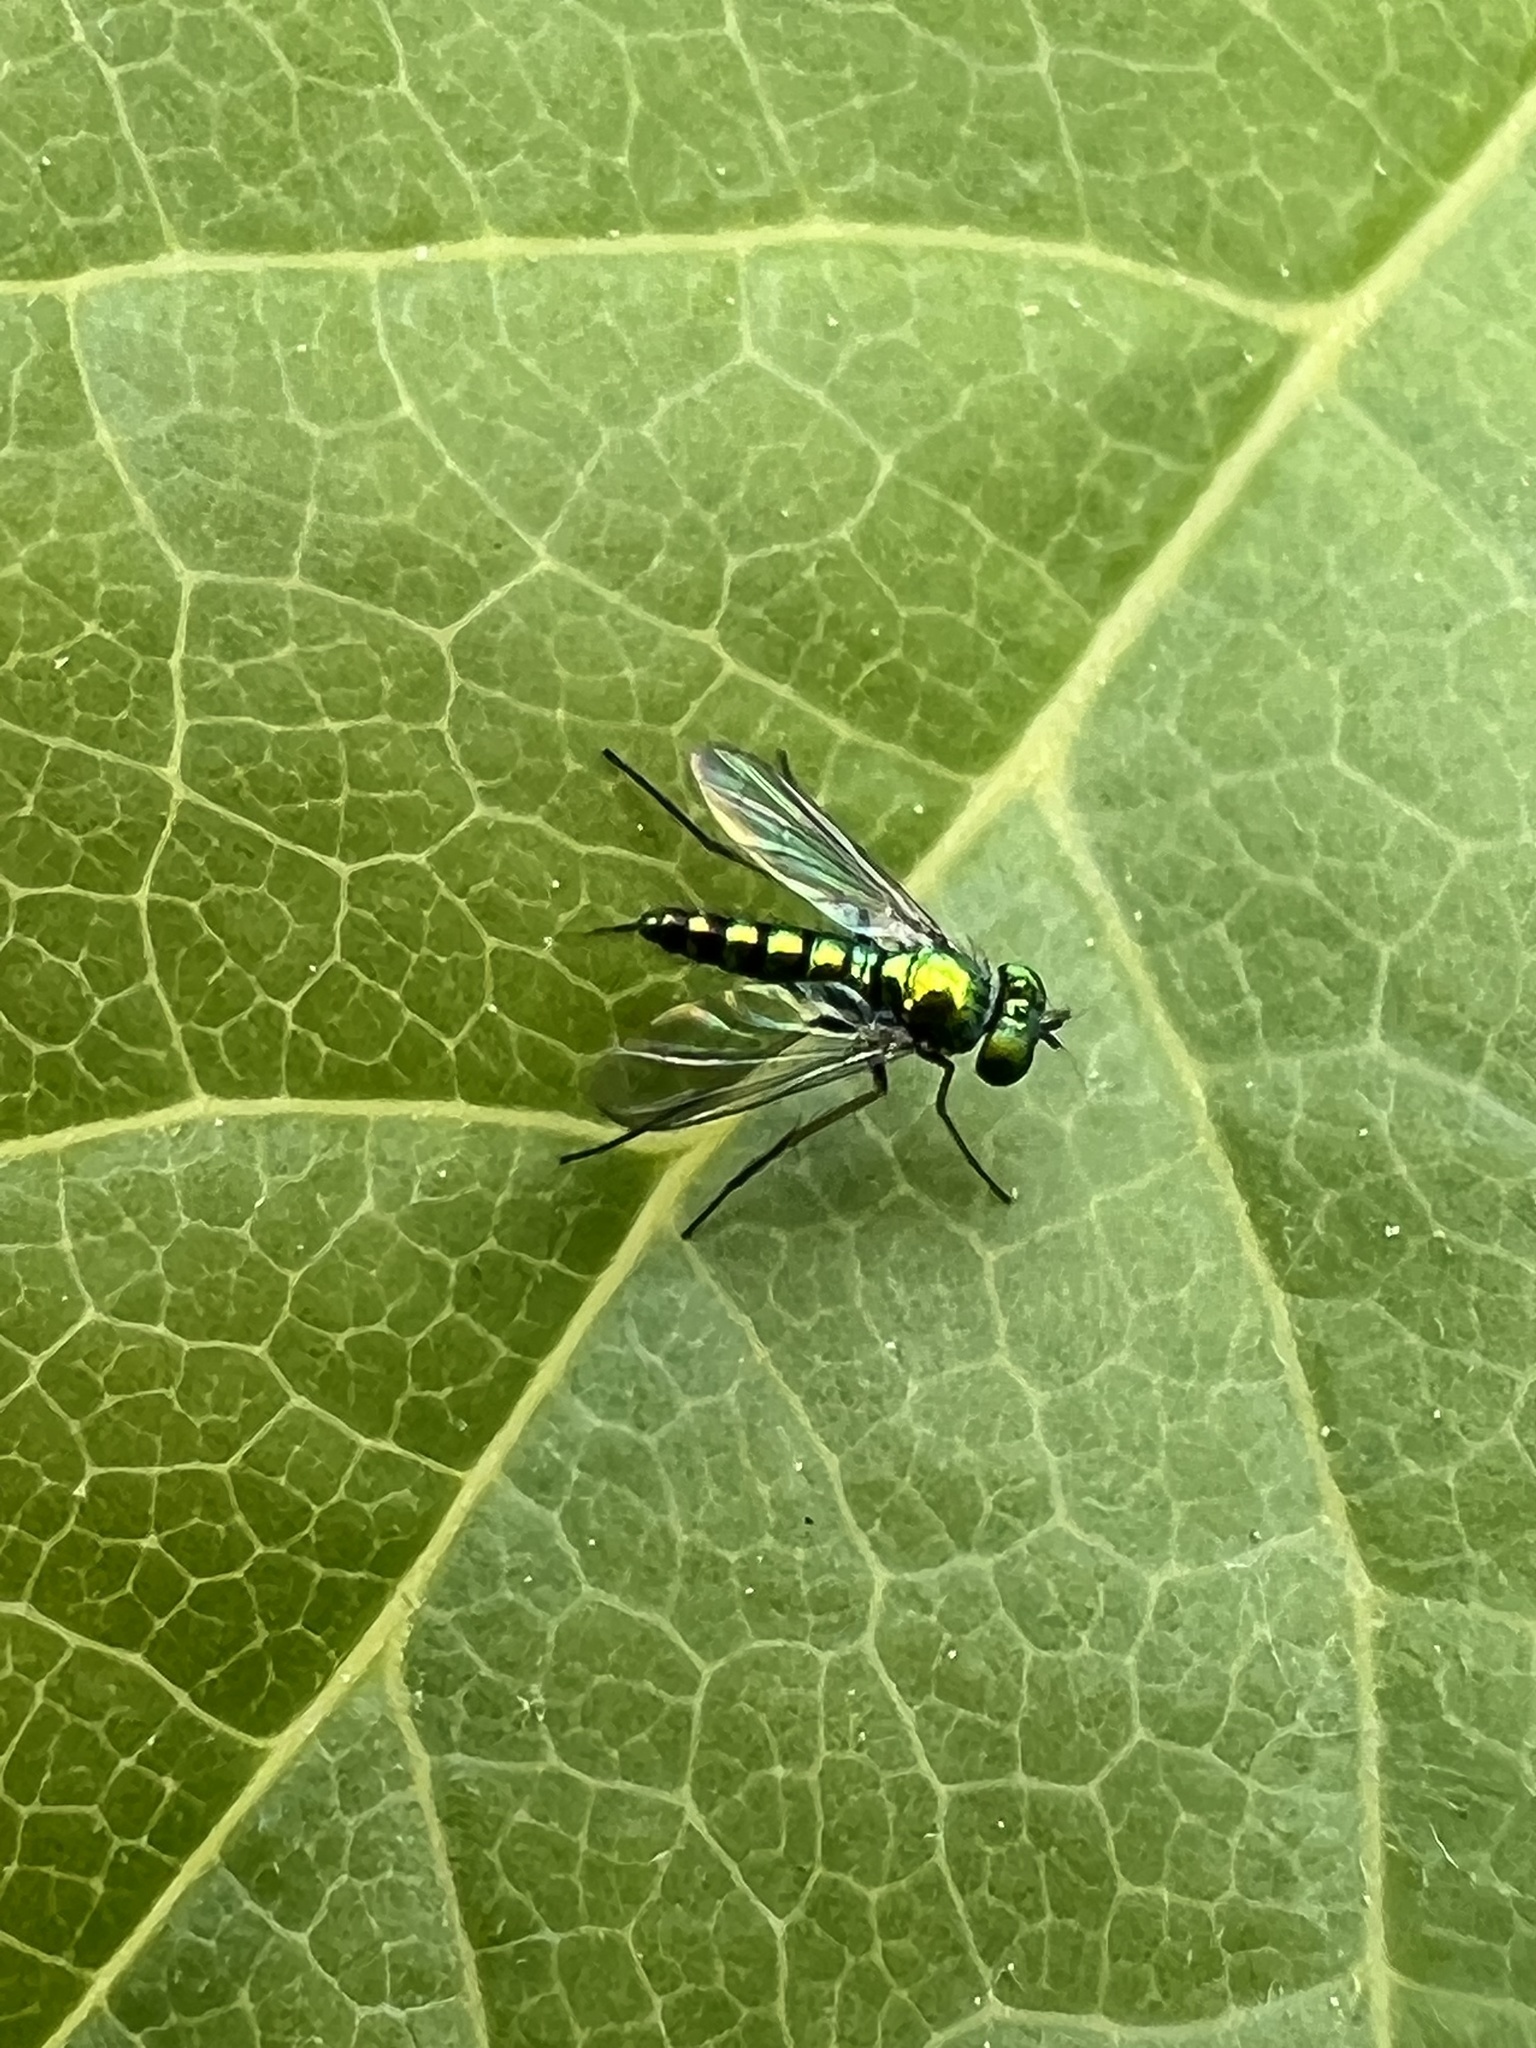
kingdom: Animalia
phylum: Arthropoda
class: Insecta
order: Diptera
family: Dolichopodidae
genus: Condylostylus
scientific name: Condylostylus caudatus
